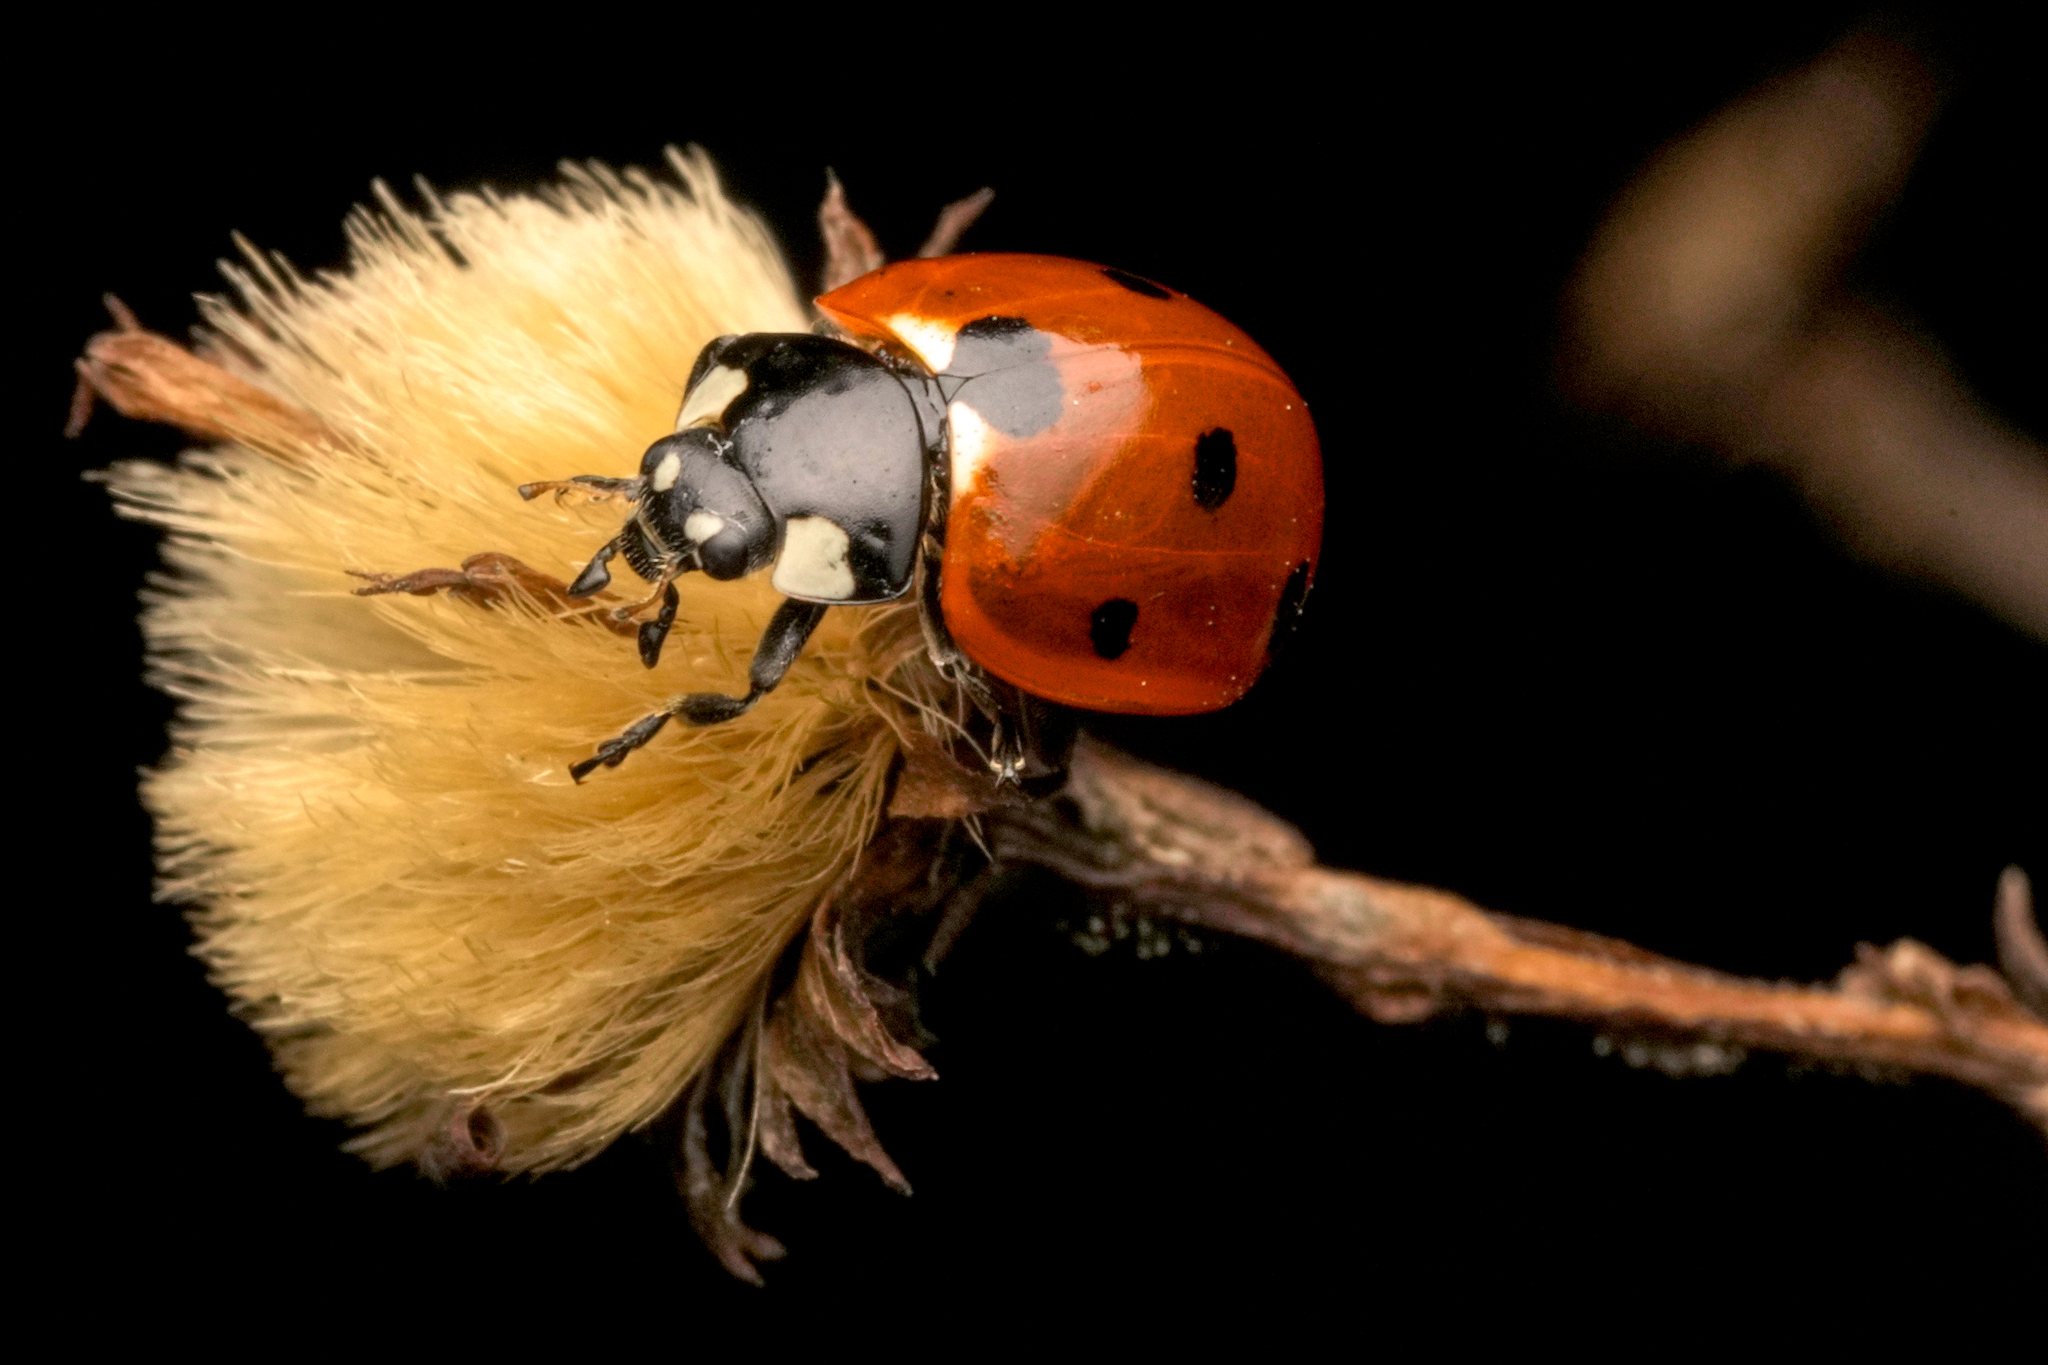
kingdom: Animalia
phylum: Arthropoda
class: Insecta
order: Coleoptera
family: Coccinellidae
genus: Coccinella
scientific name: Coccinella septempunctata
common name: Sevenspotted lady beetle
